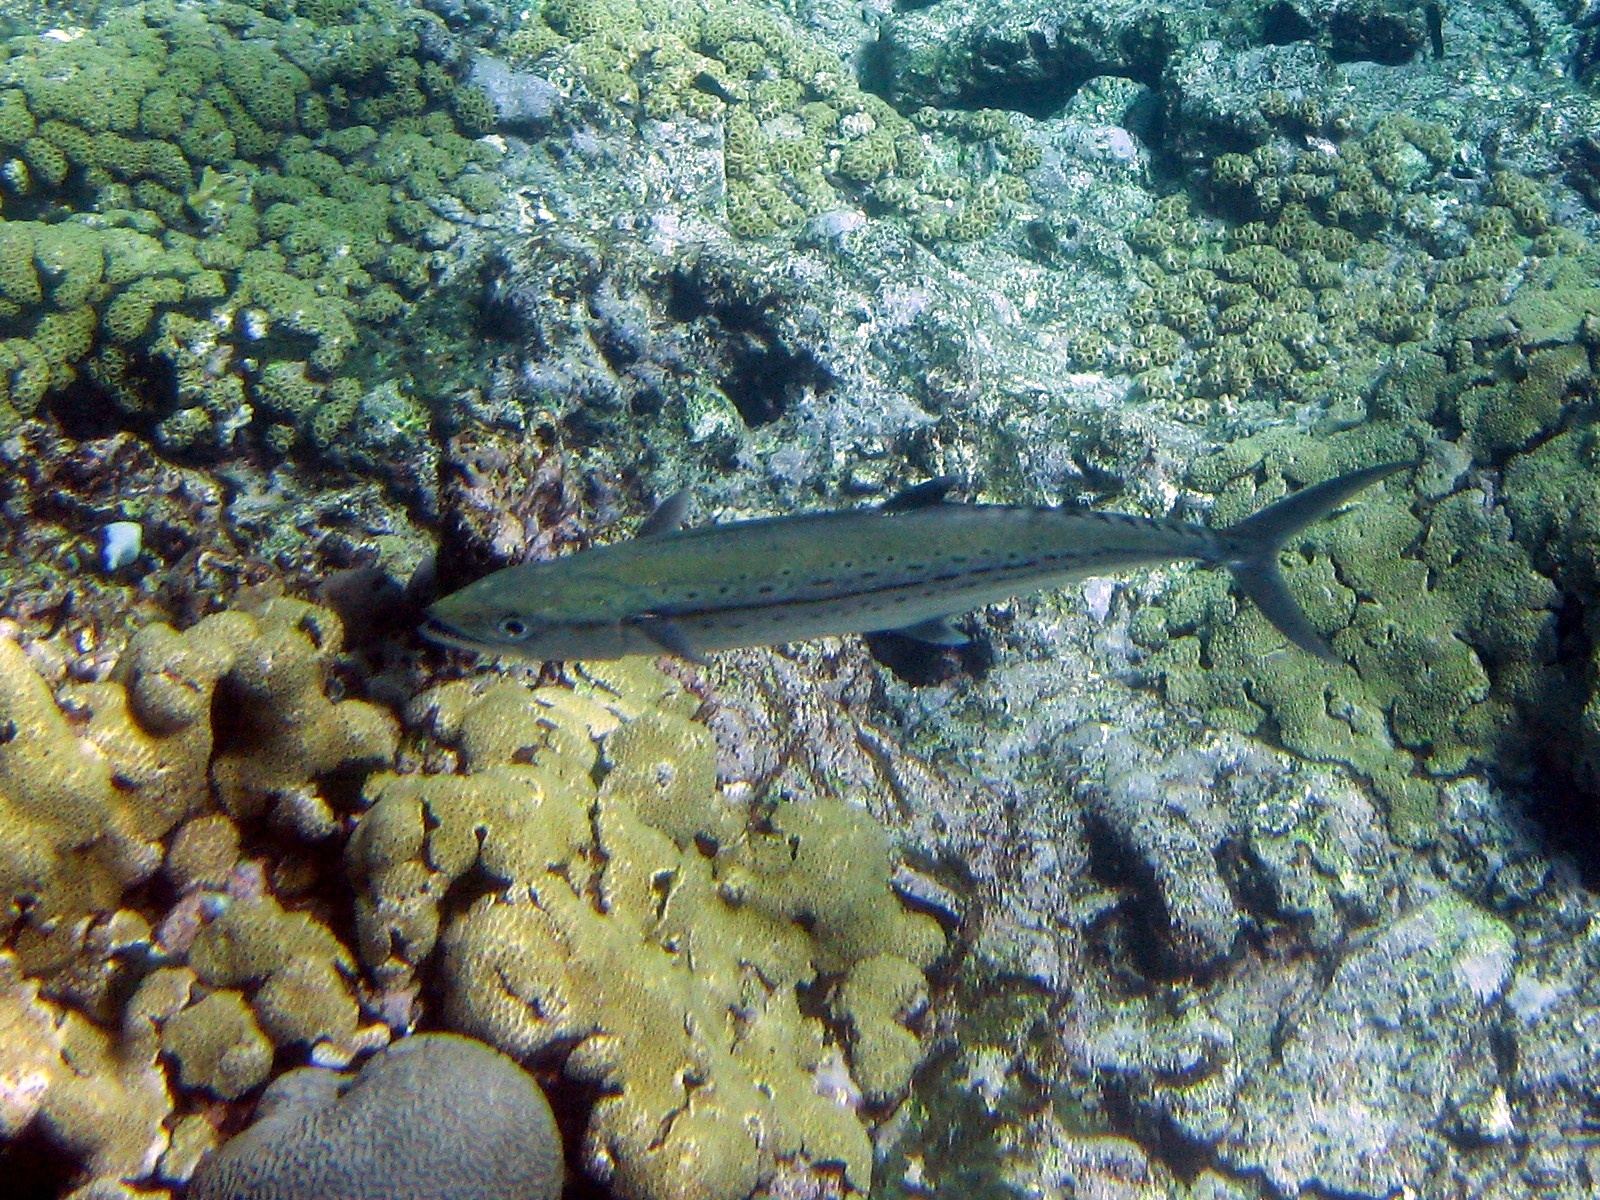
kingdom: Animalia
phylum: Chordata
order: Perciformes
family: Scombridae
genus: Scomberomorus
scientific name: Scomberomorus regalis
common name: Cero
